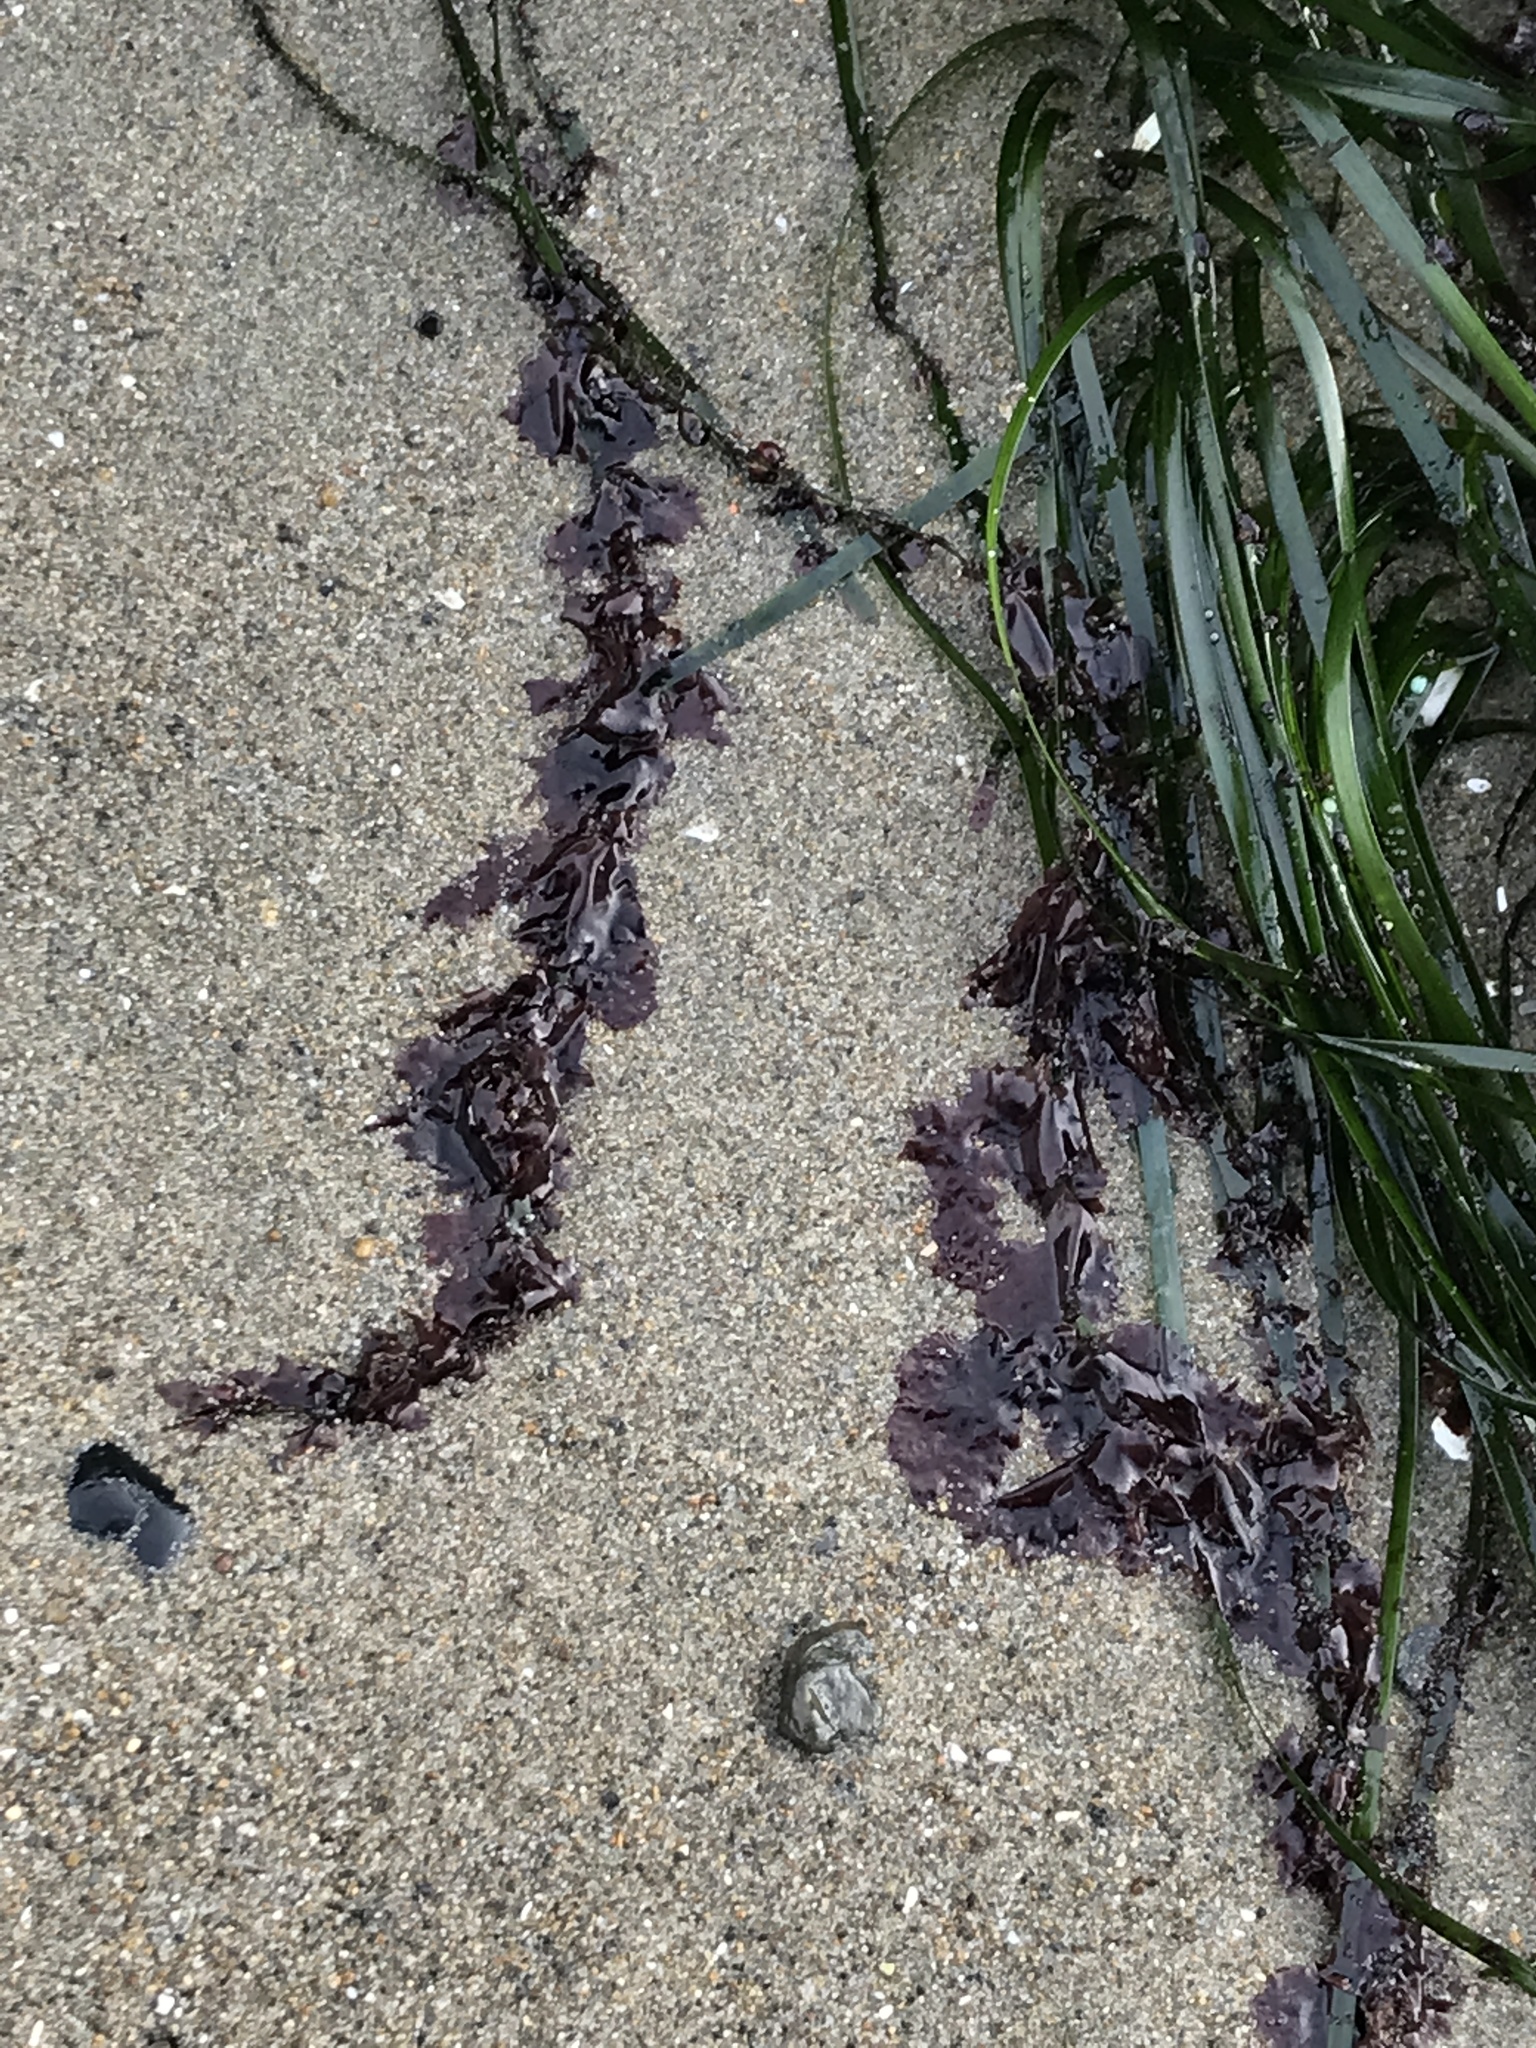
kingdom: Plantae
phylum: Rhodophyta
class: Compsopogonophyceae
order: Erythropeltidales
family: Erythrotrichiaceae
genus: Smithora
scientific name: Smithora naiadum
